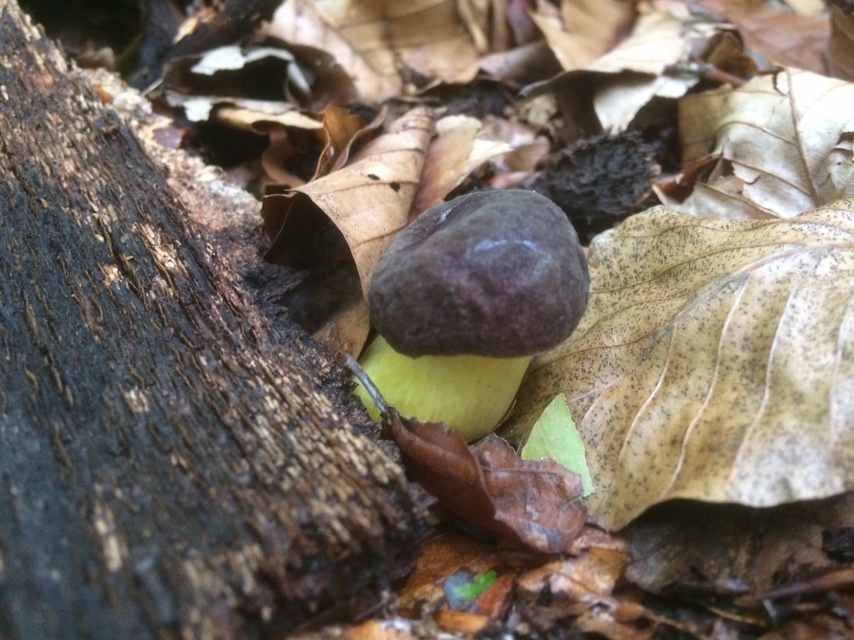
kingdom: Fungi
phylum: Basidiomycota
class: Agaricomycetes
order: Boletales
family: Boletaceae
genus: Xerocomellus
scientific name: Xerocomellus pruinatus
